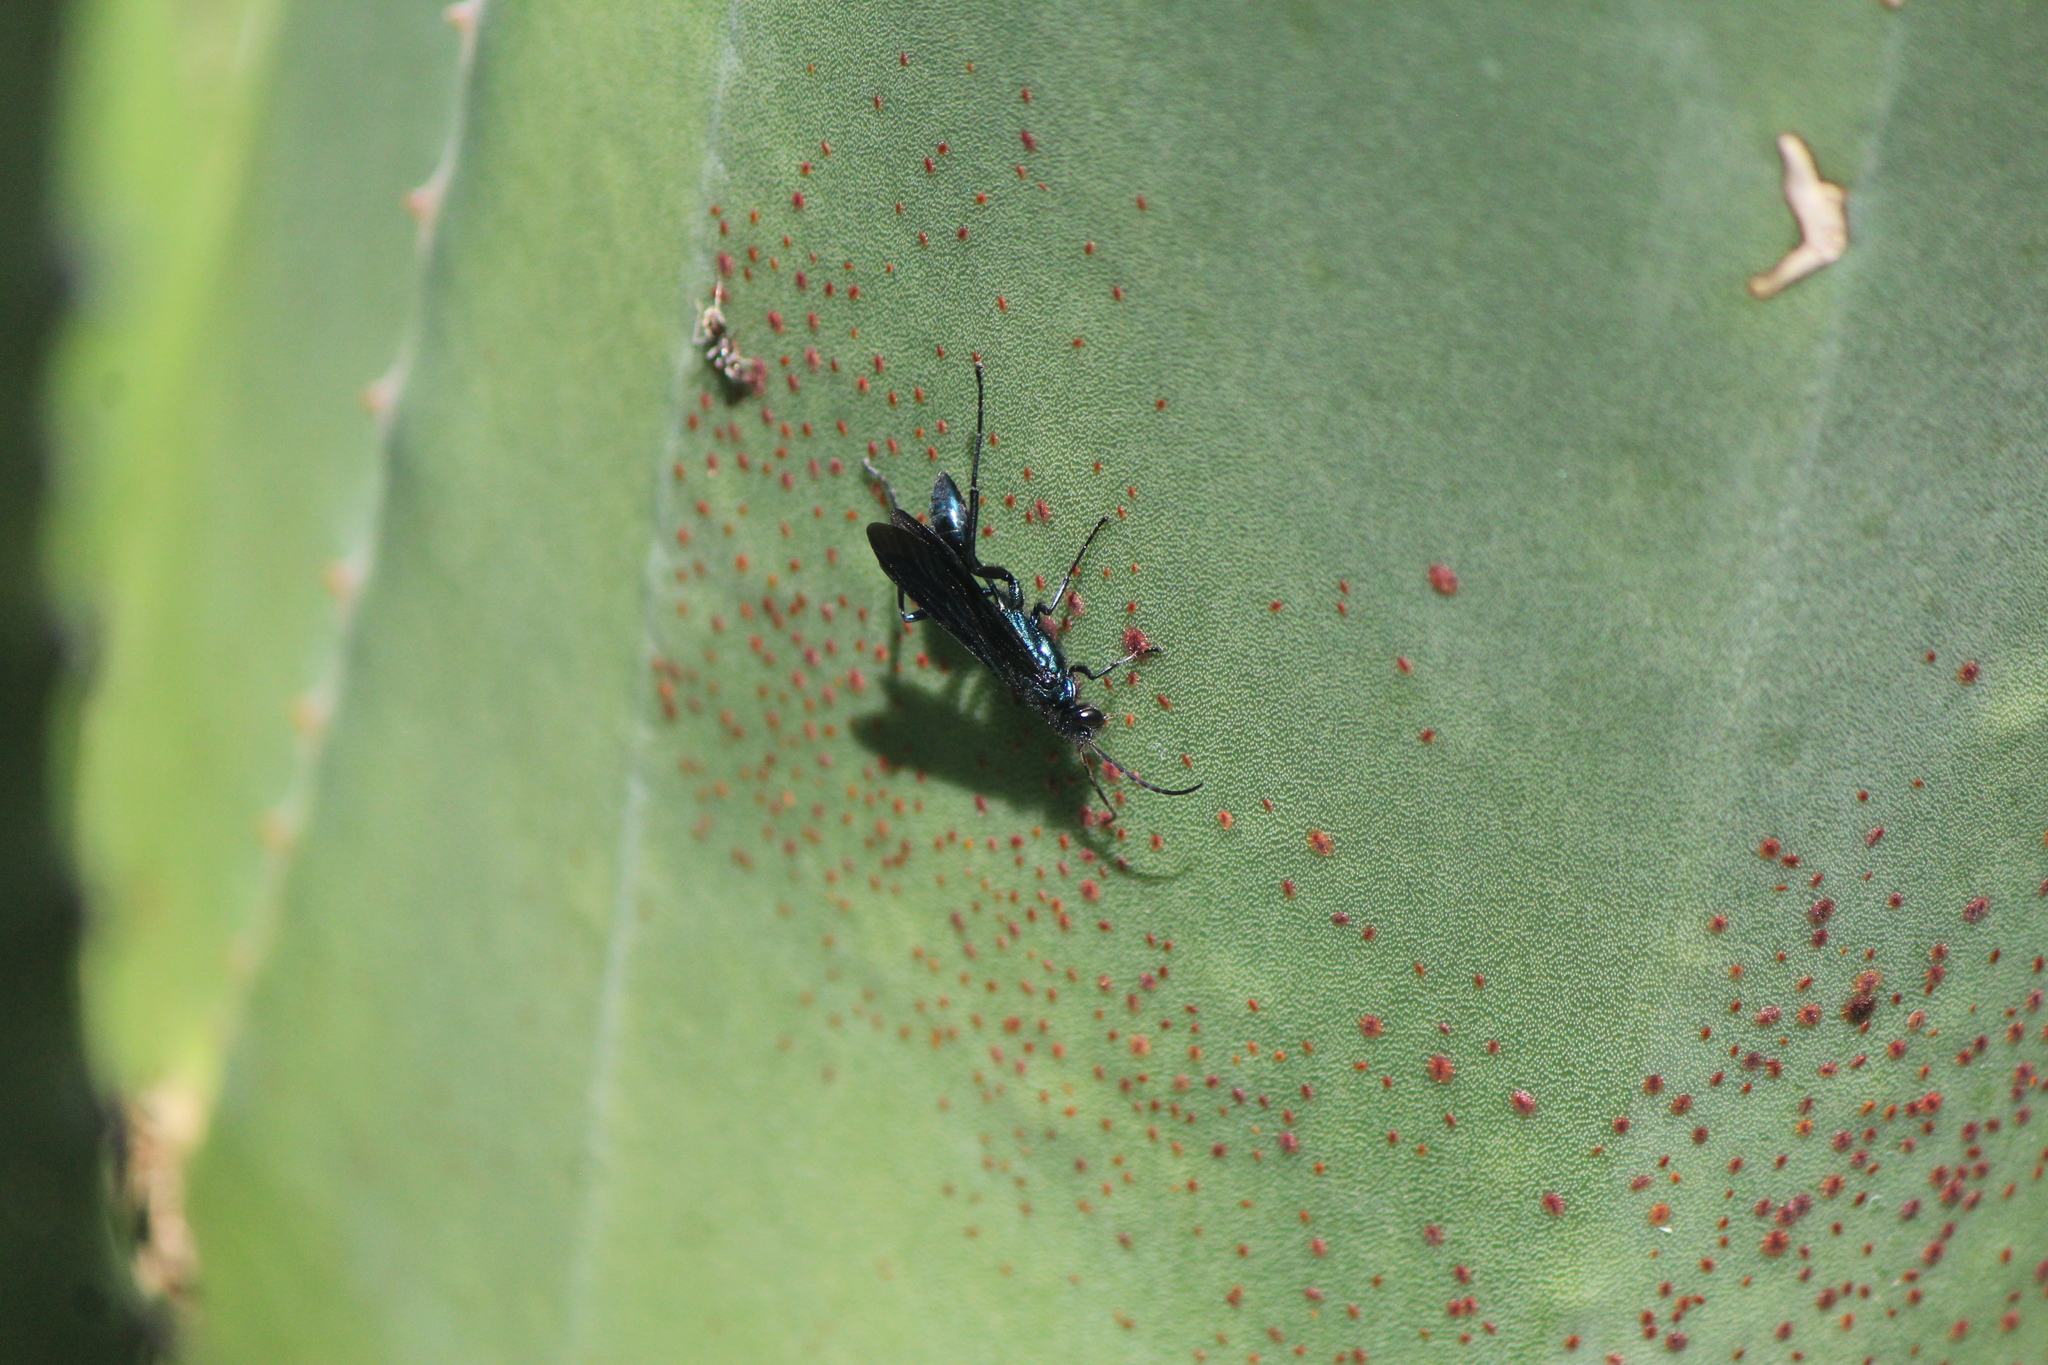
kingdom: Animalia
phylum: Arthropoda
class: Insecta
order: Hymenoptera
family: Sphecidae
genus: Chalybion
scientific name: Chalybion californicum
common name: Mud dauber
